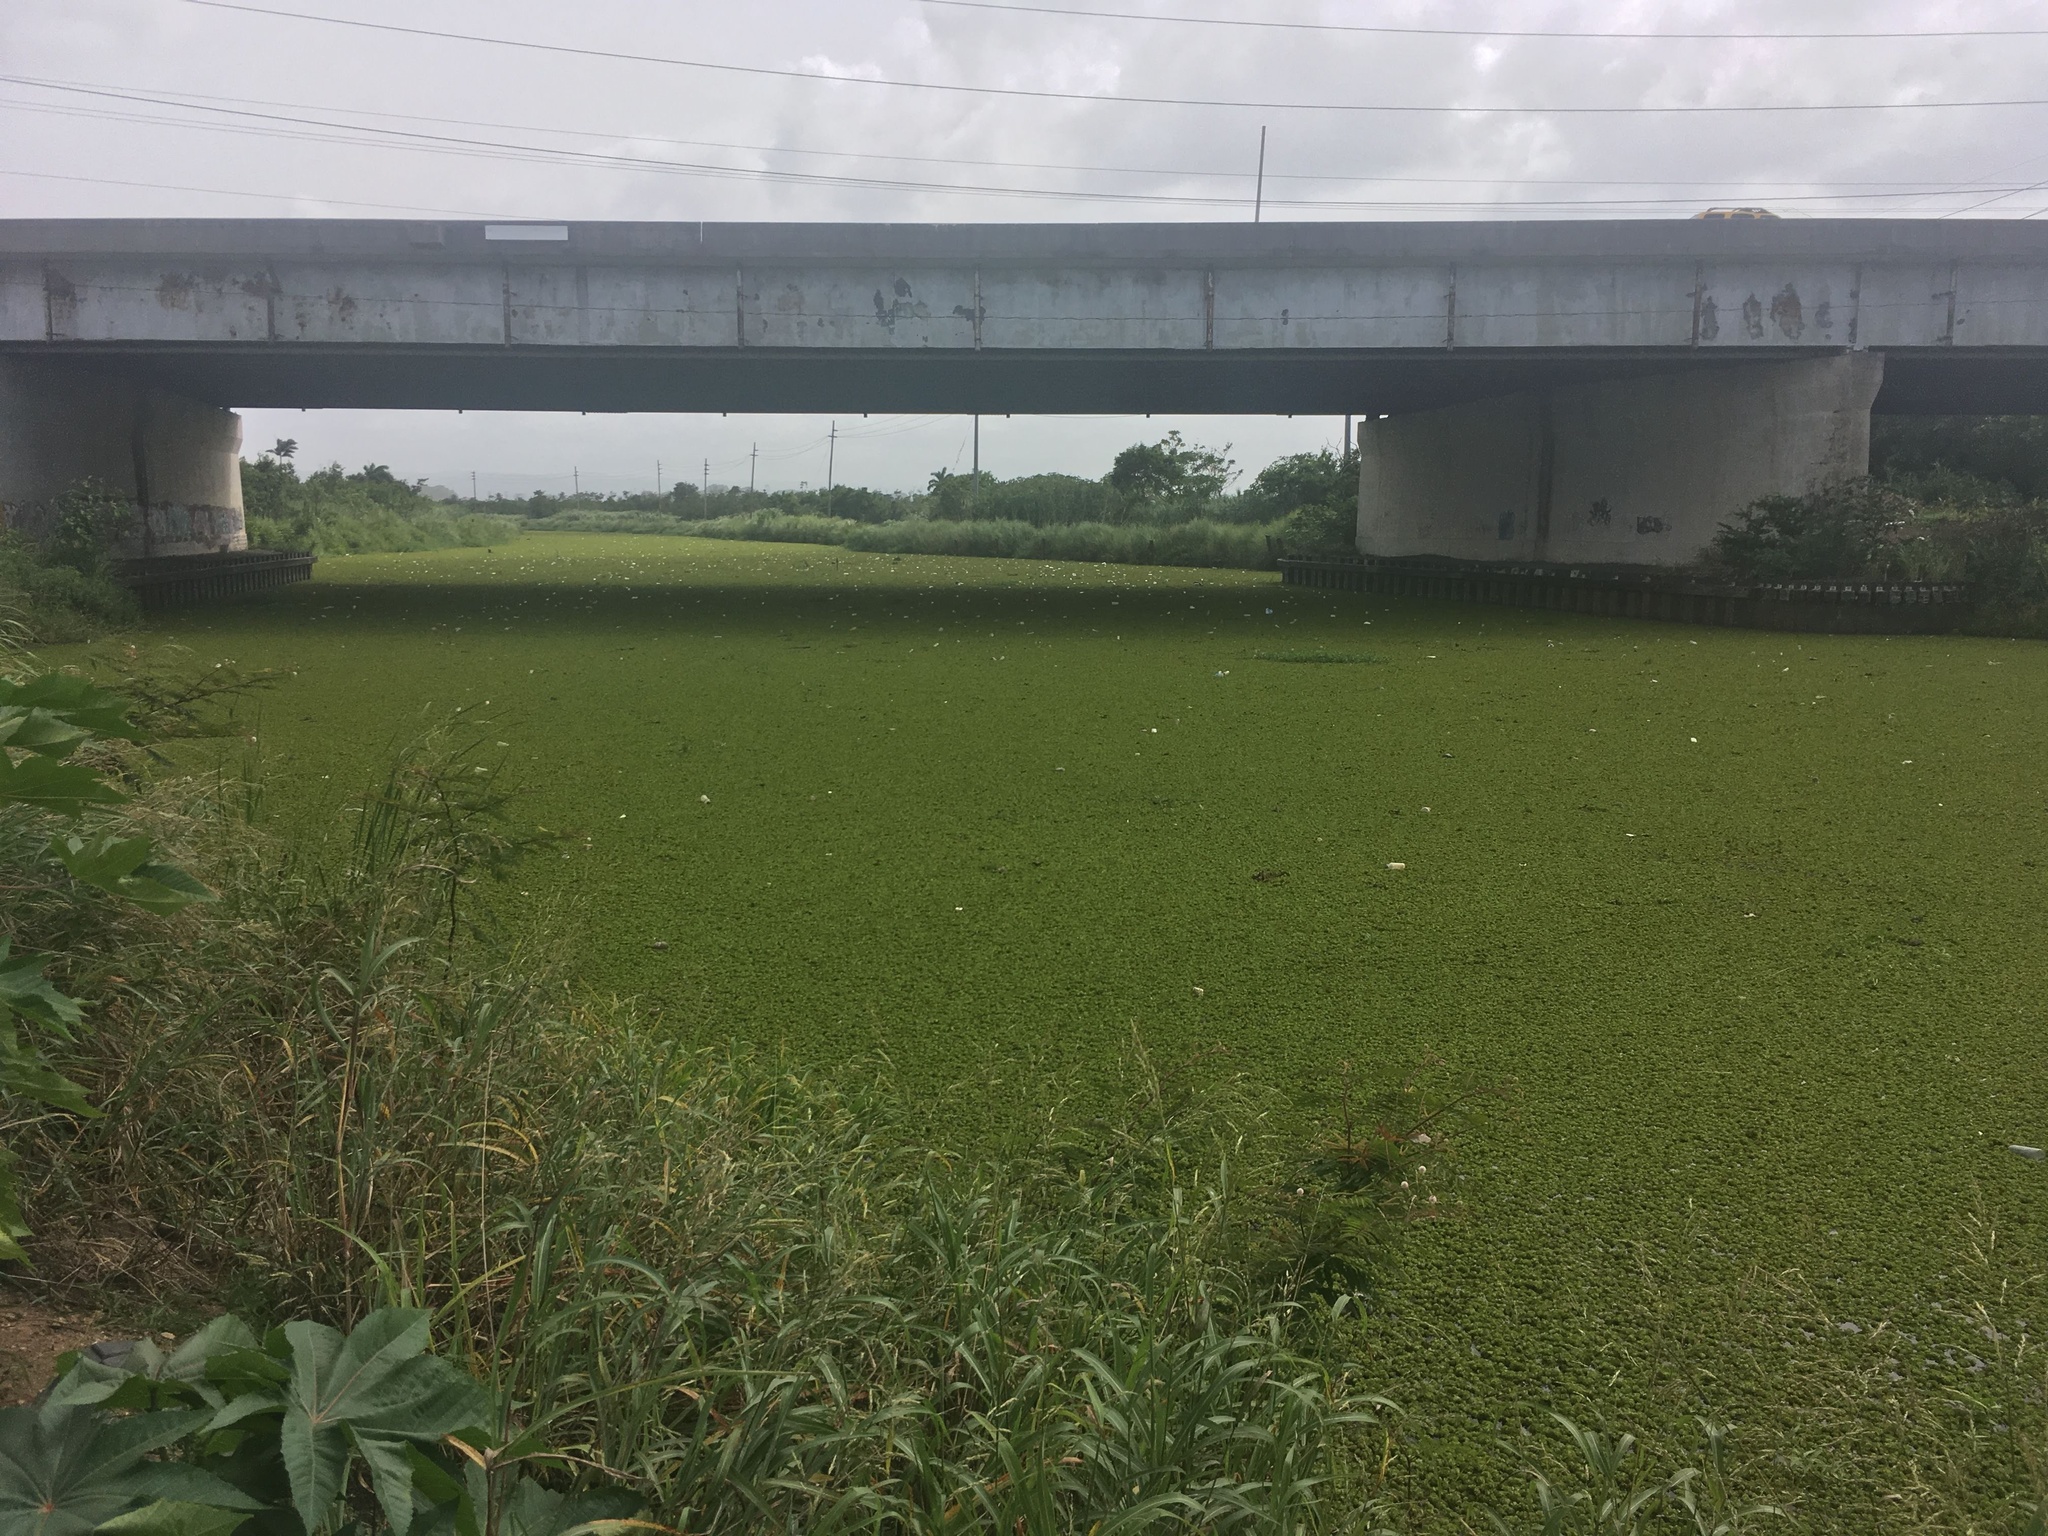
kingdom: Plantae
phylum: Tracheophyta
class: Polypodiopsida
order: Salviniales
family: Salviniaceae
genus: Salvinia
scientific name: Salvinia molesta
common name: Kariba weed
